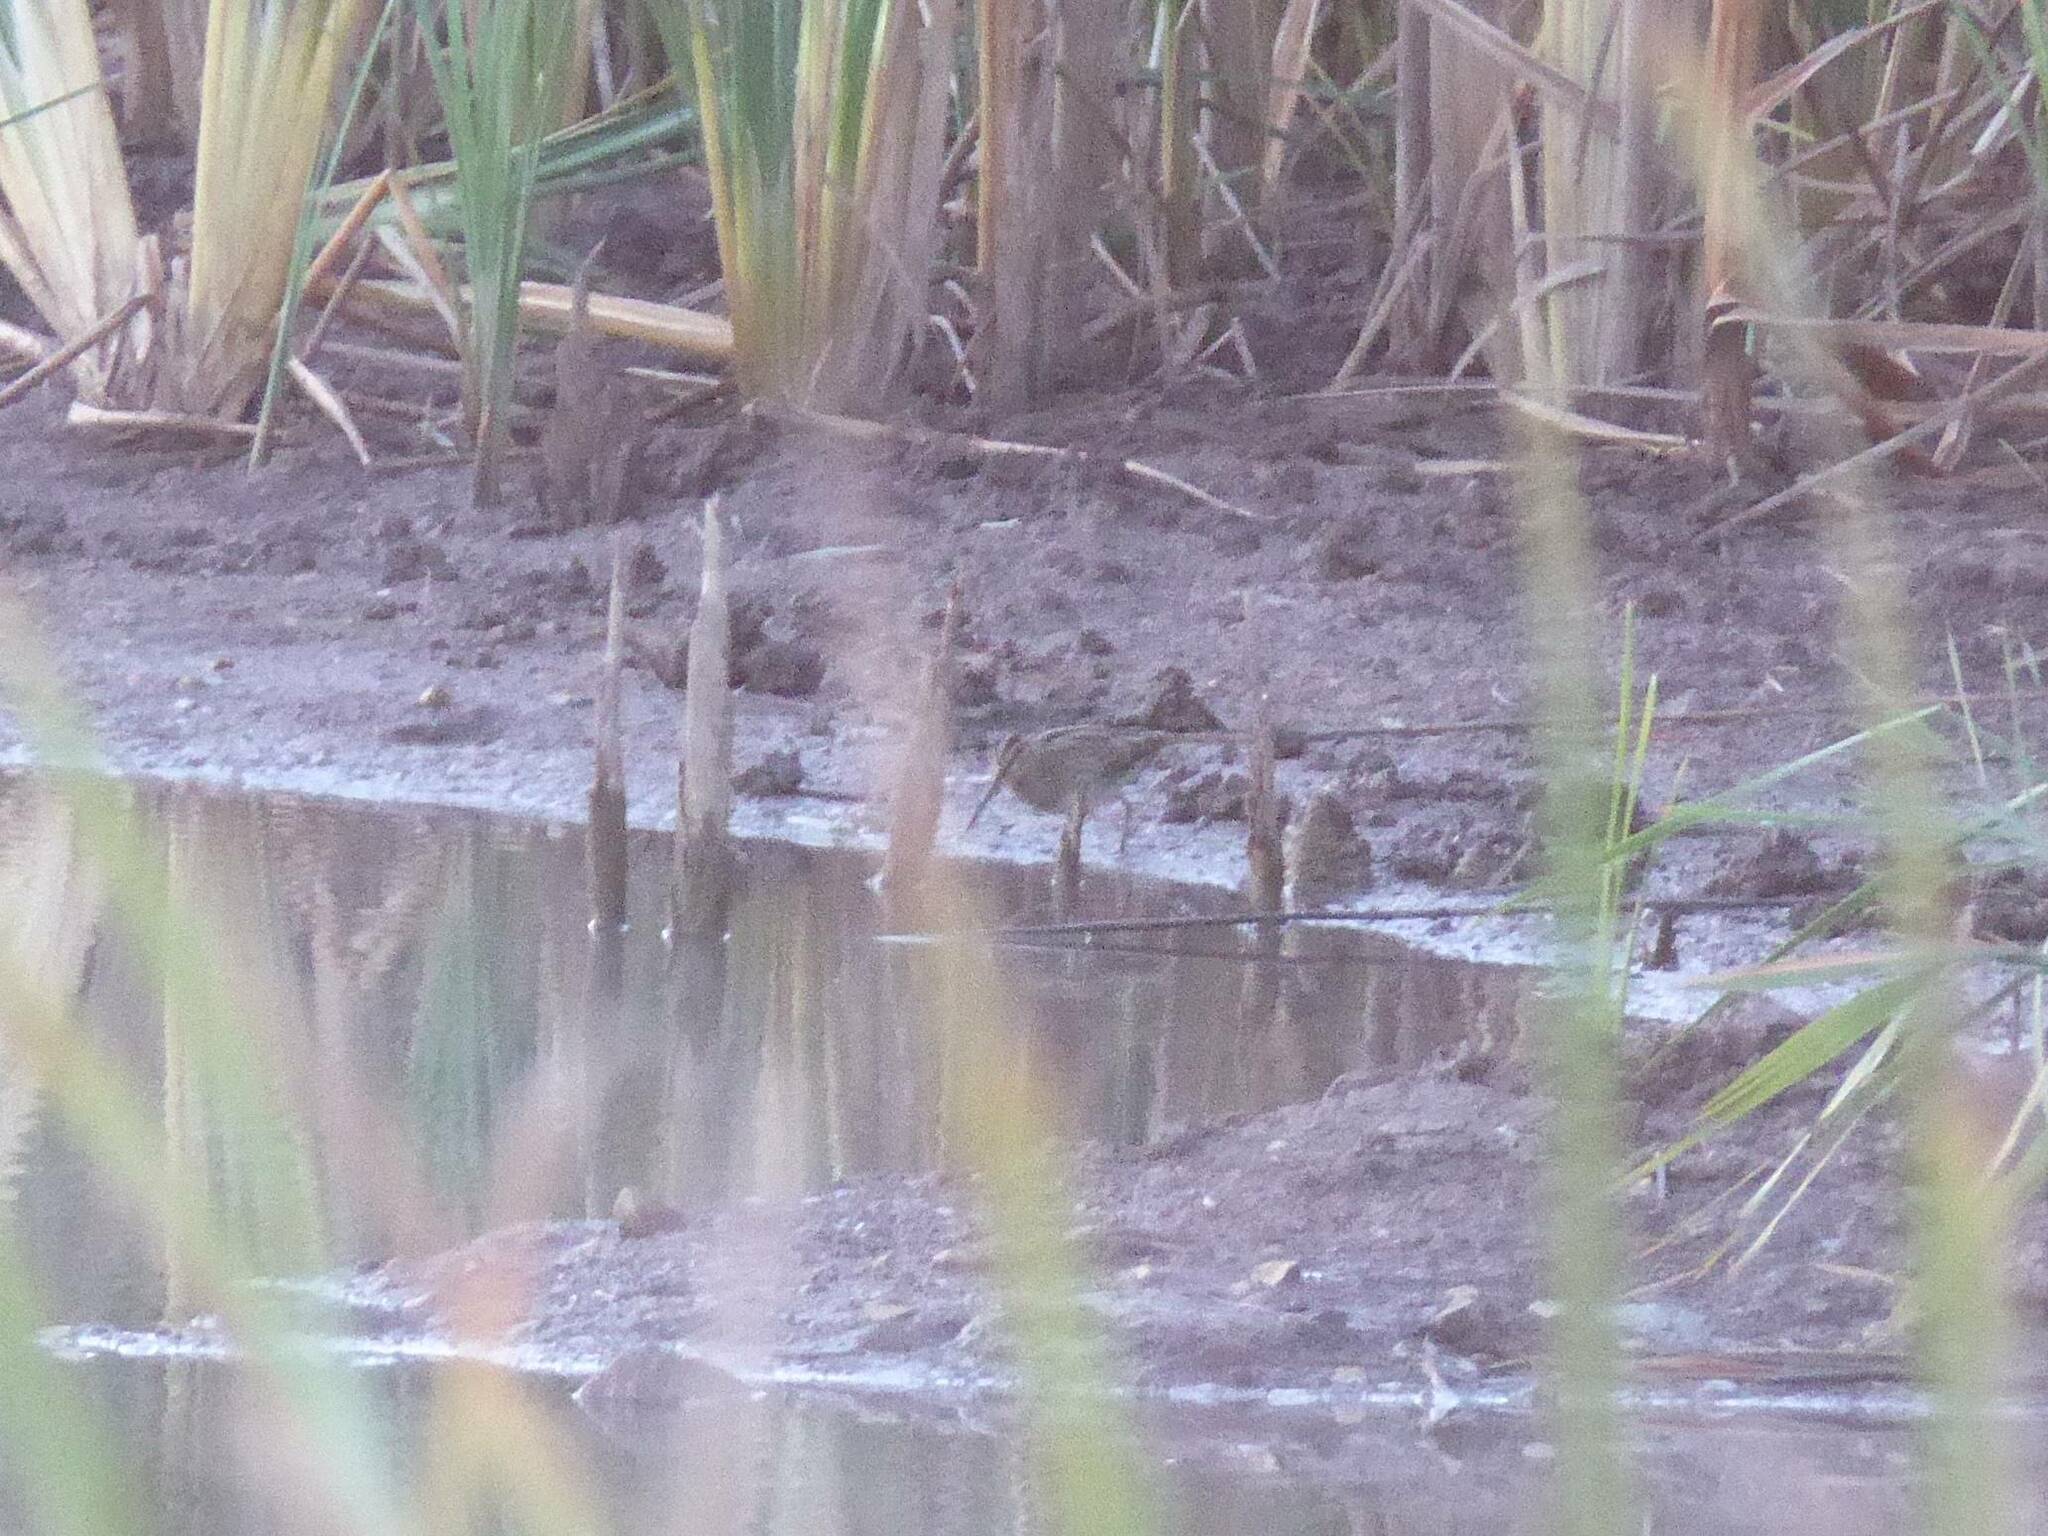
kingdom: Animalia
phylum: Chordata
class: Aves
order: Charadriiformes
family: Scolopacidae
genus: Gallinago
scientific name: Gallinago gallinago
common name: Common snipe
